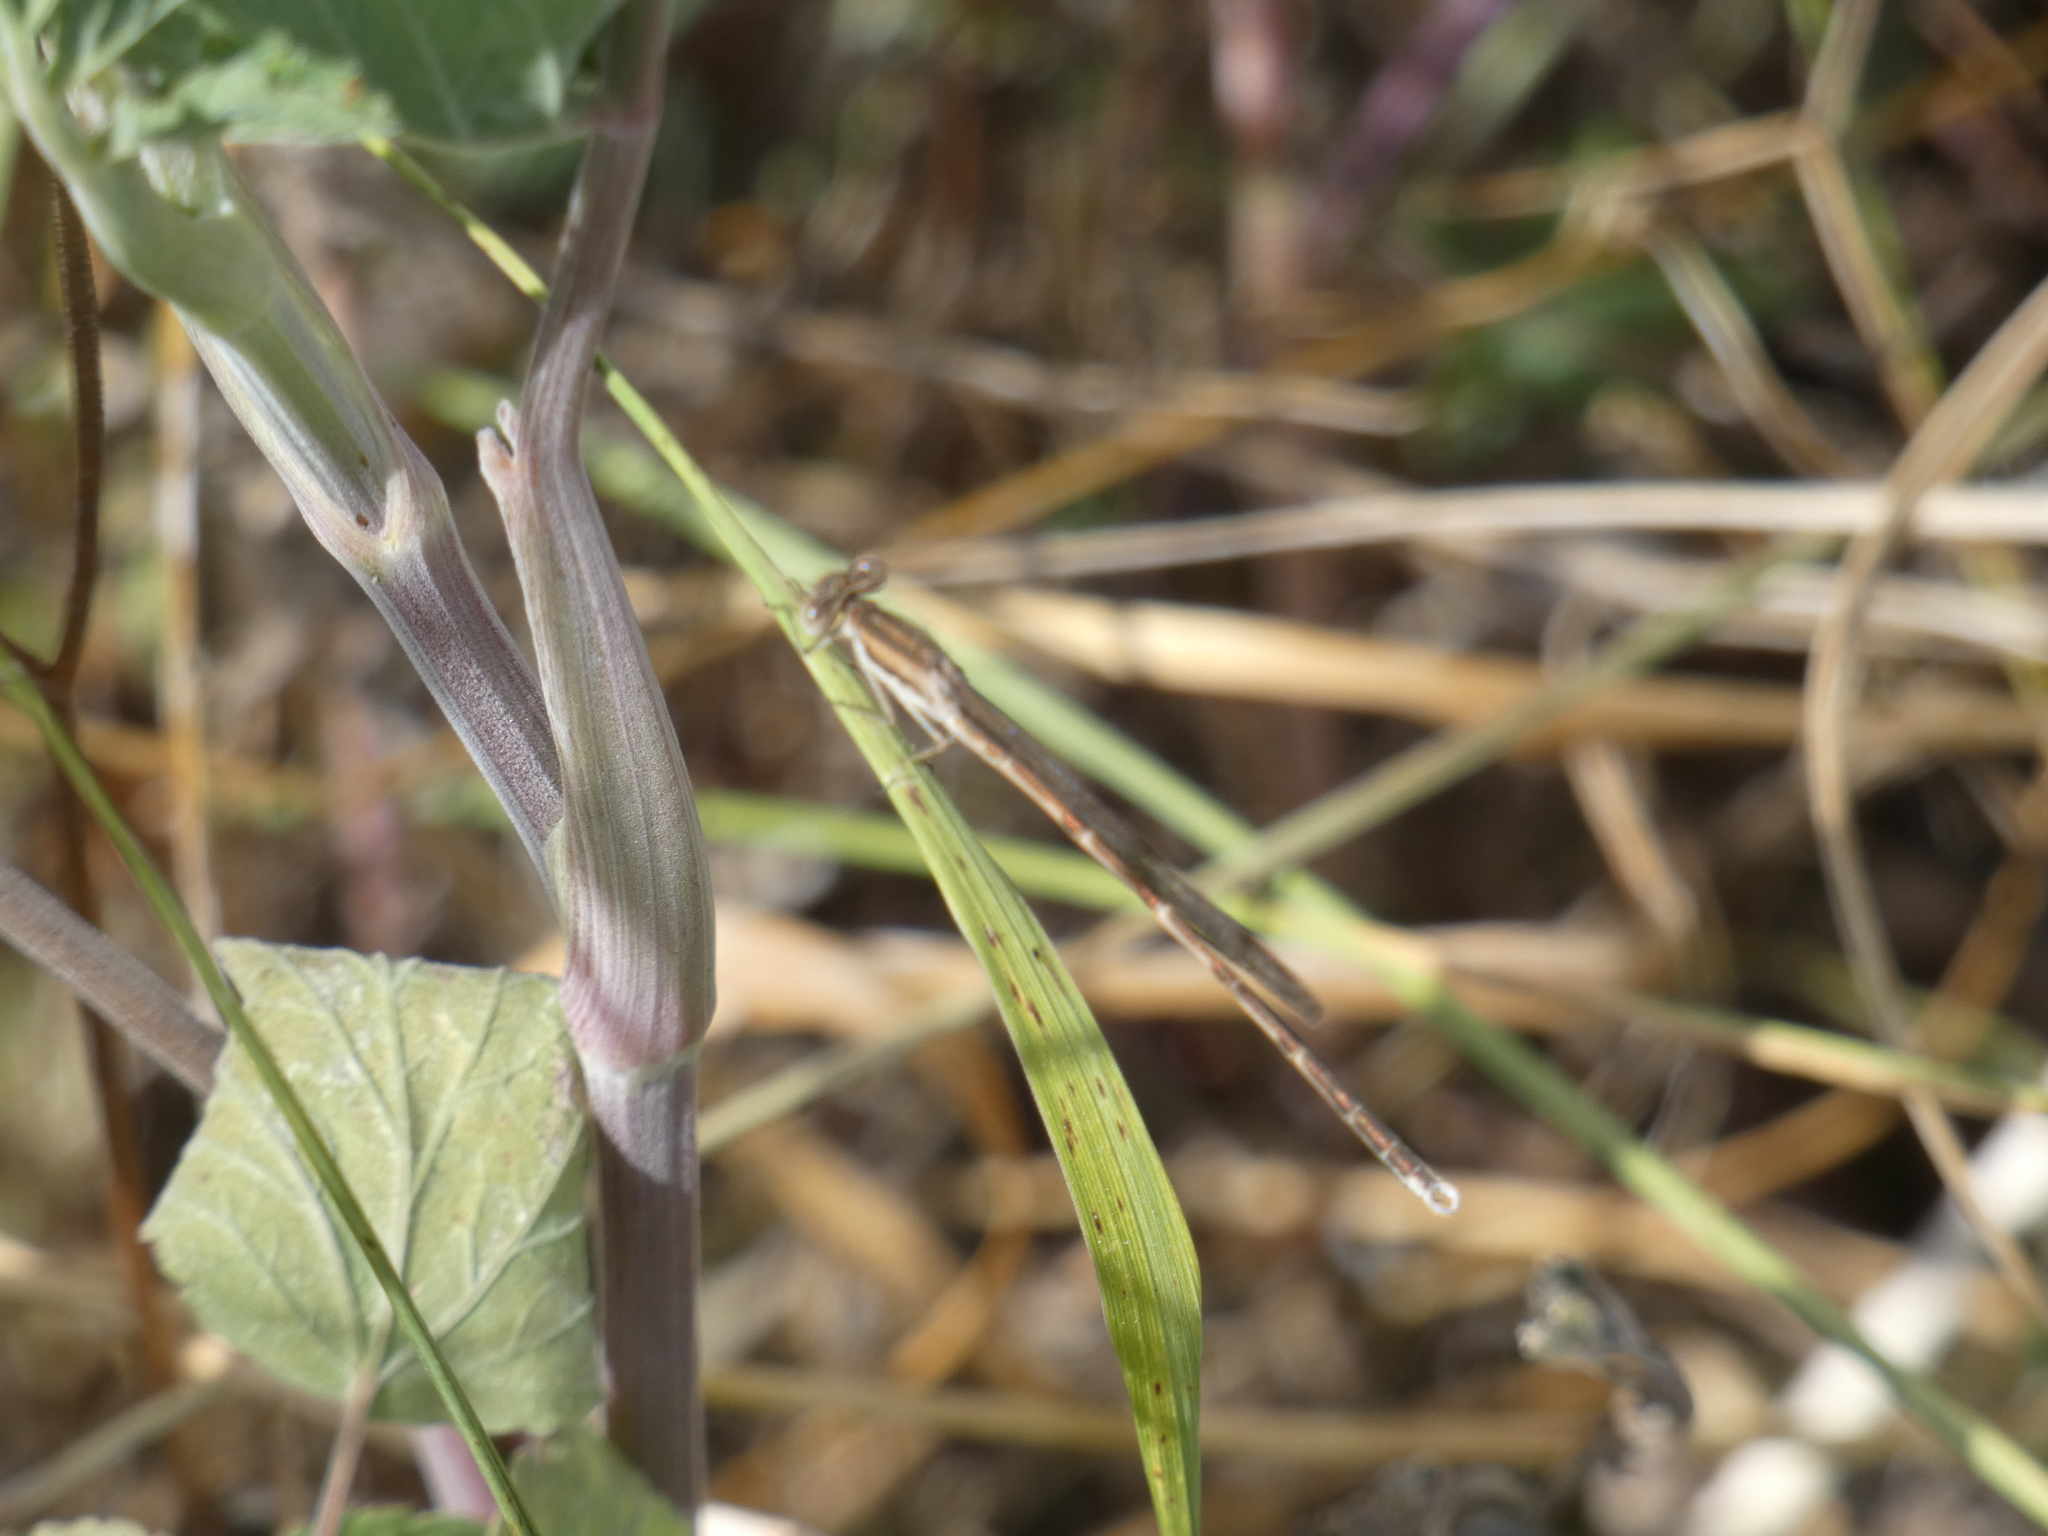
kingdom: Animalia
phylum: Arthropoda
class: Insecta
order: Odonata
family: Lestidae
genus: Sympecma
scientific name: Sympecma fusca
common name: Common winter damsel
